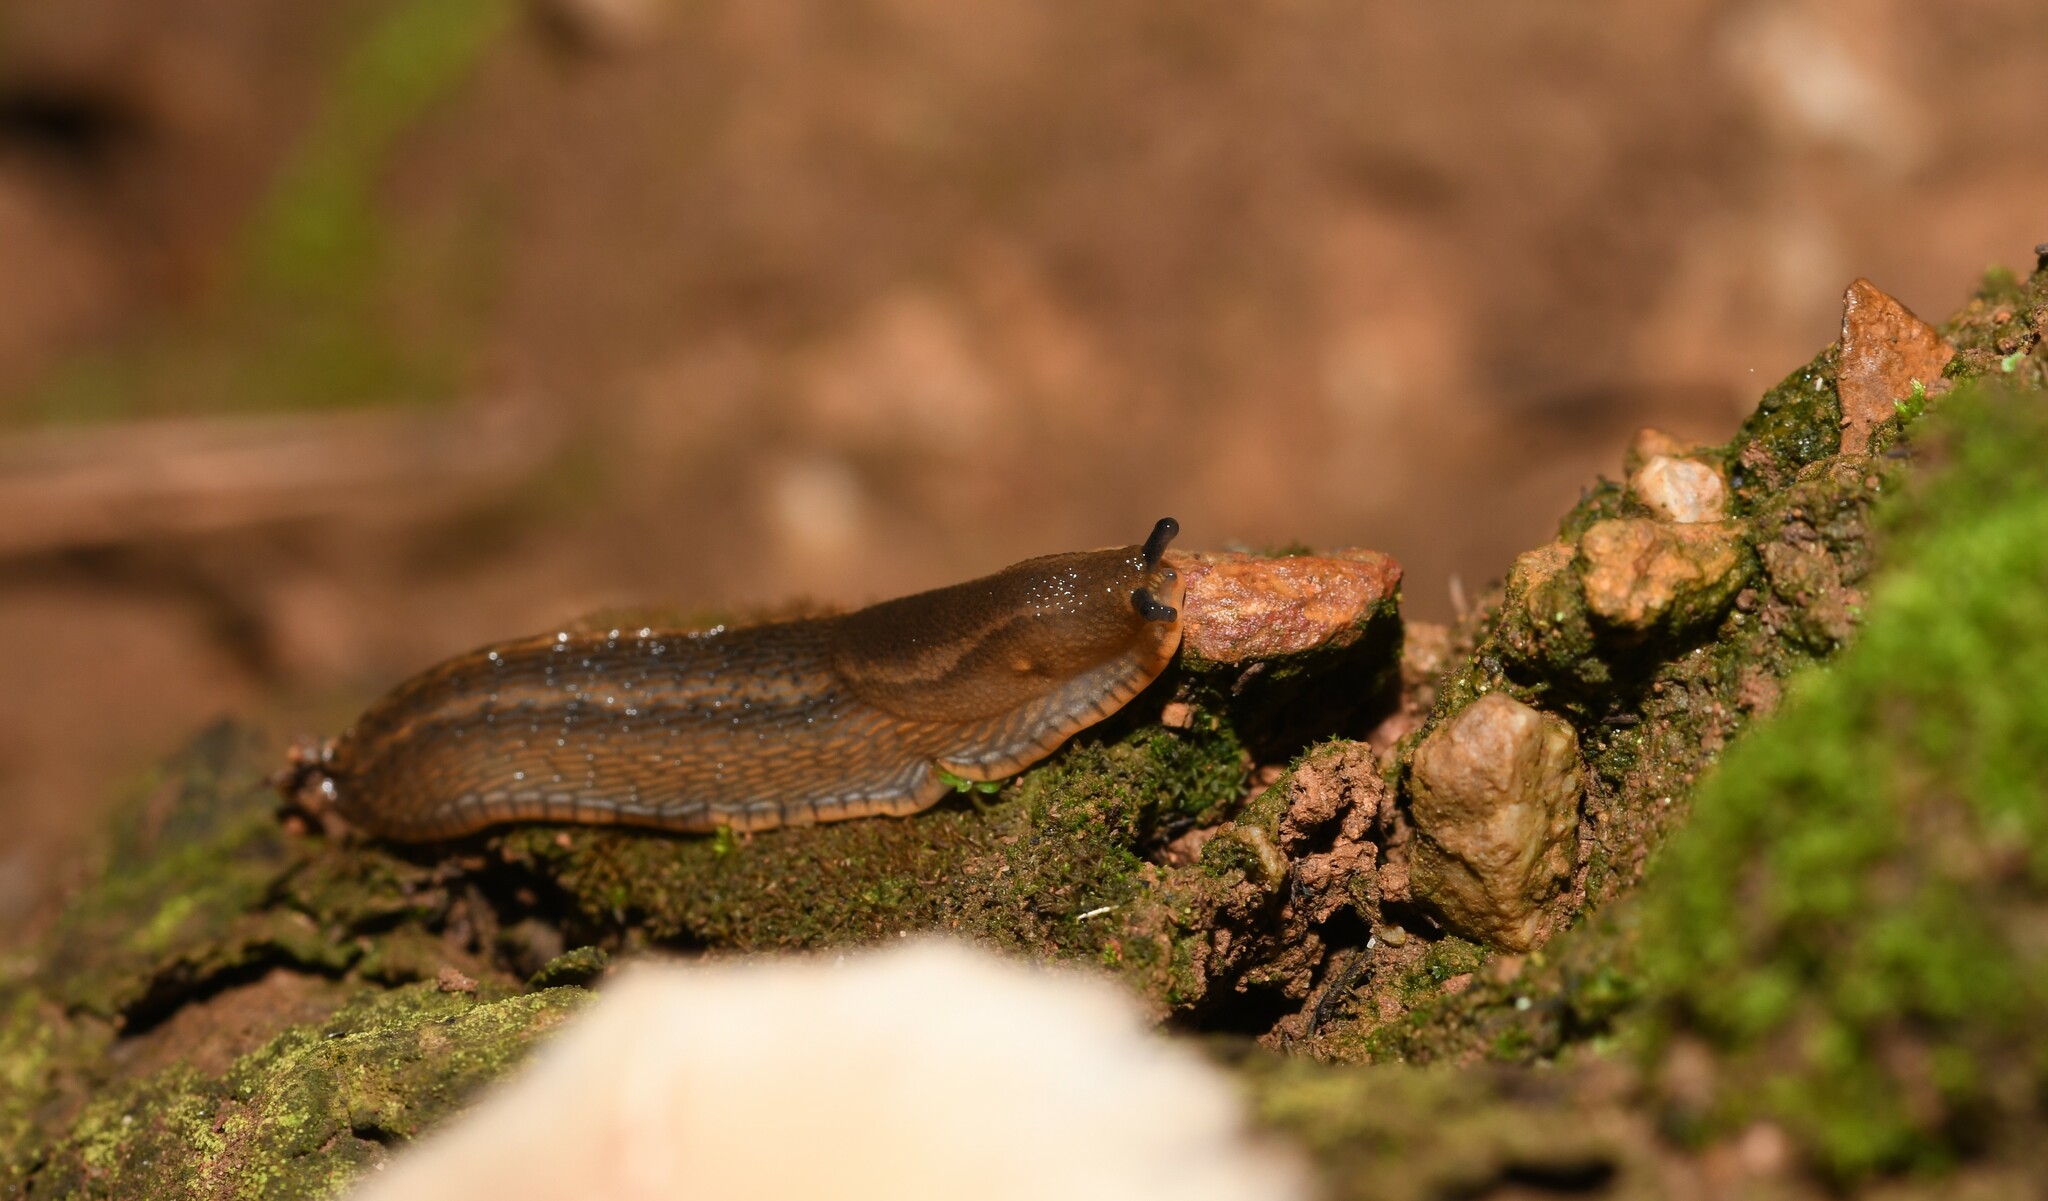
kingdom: Animalia
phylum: Mollusca
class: Gastropoda
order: Stylommatophora
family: Arionidae
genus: Arion
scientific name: Arion vulgaris
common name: Lusitanian slug
